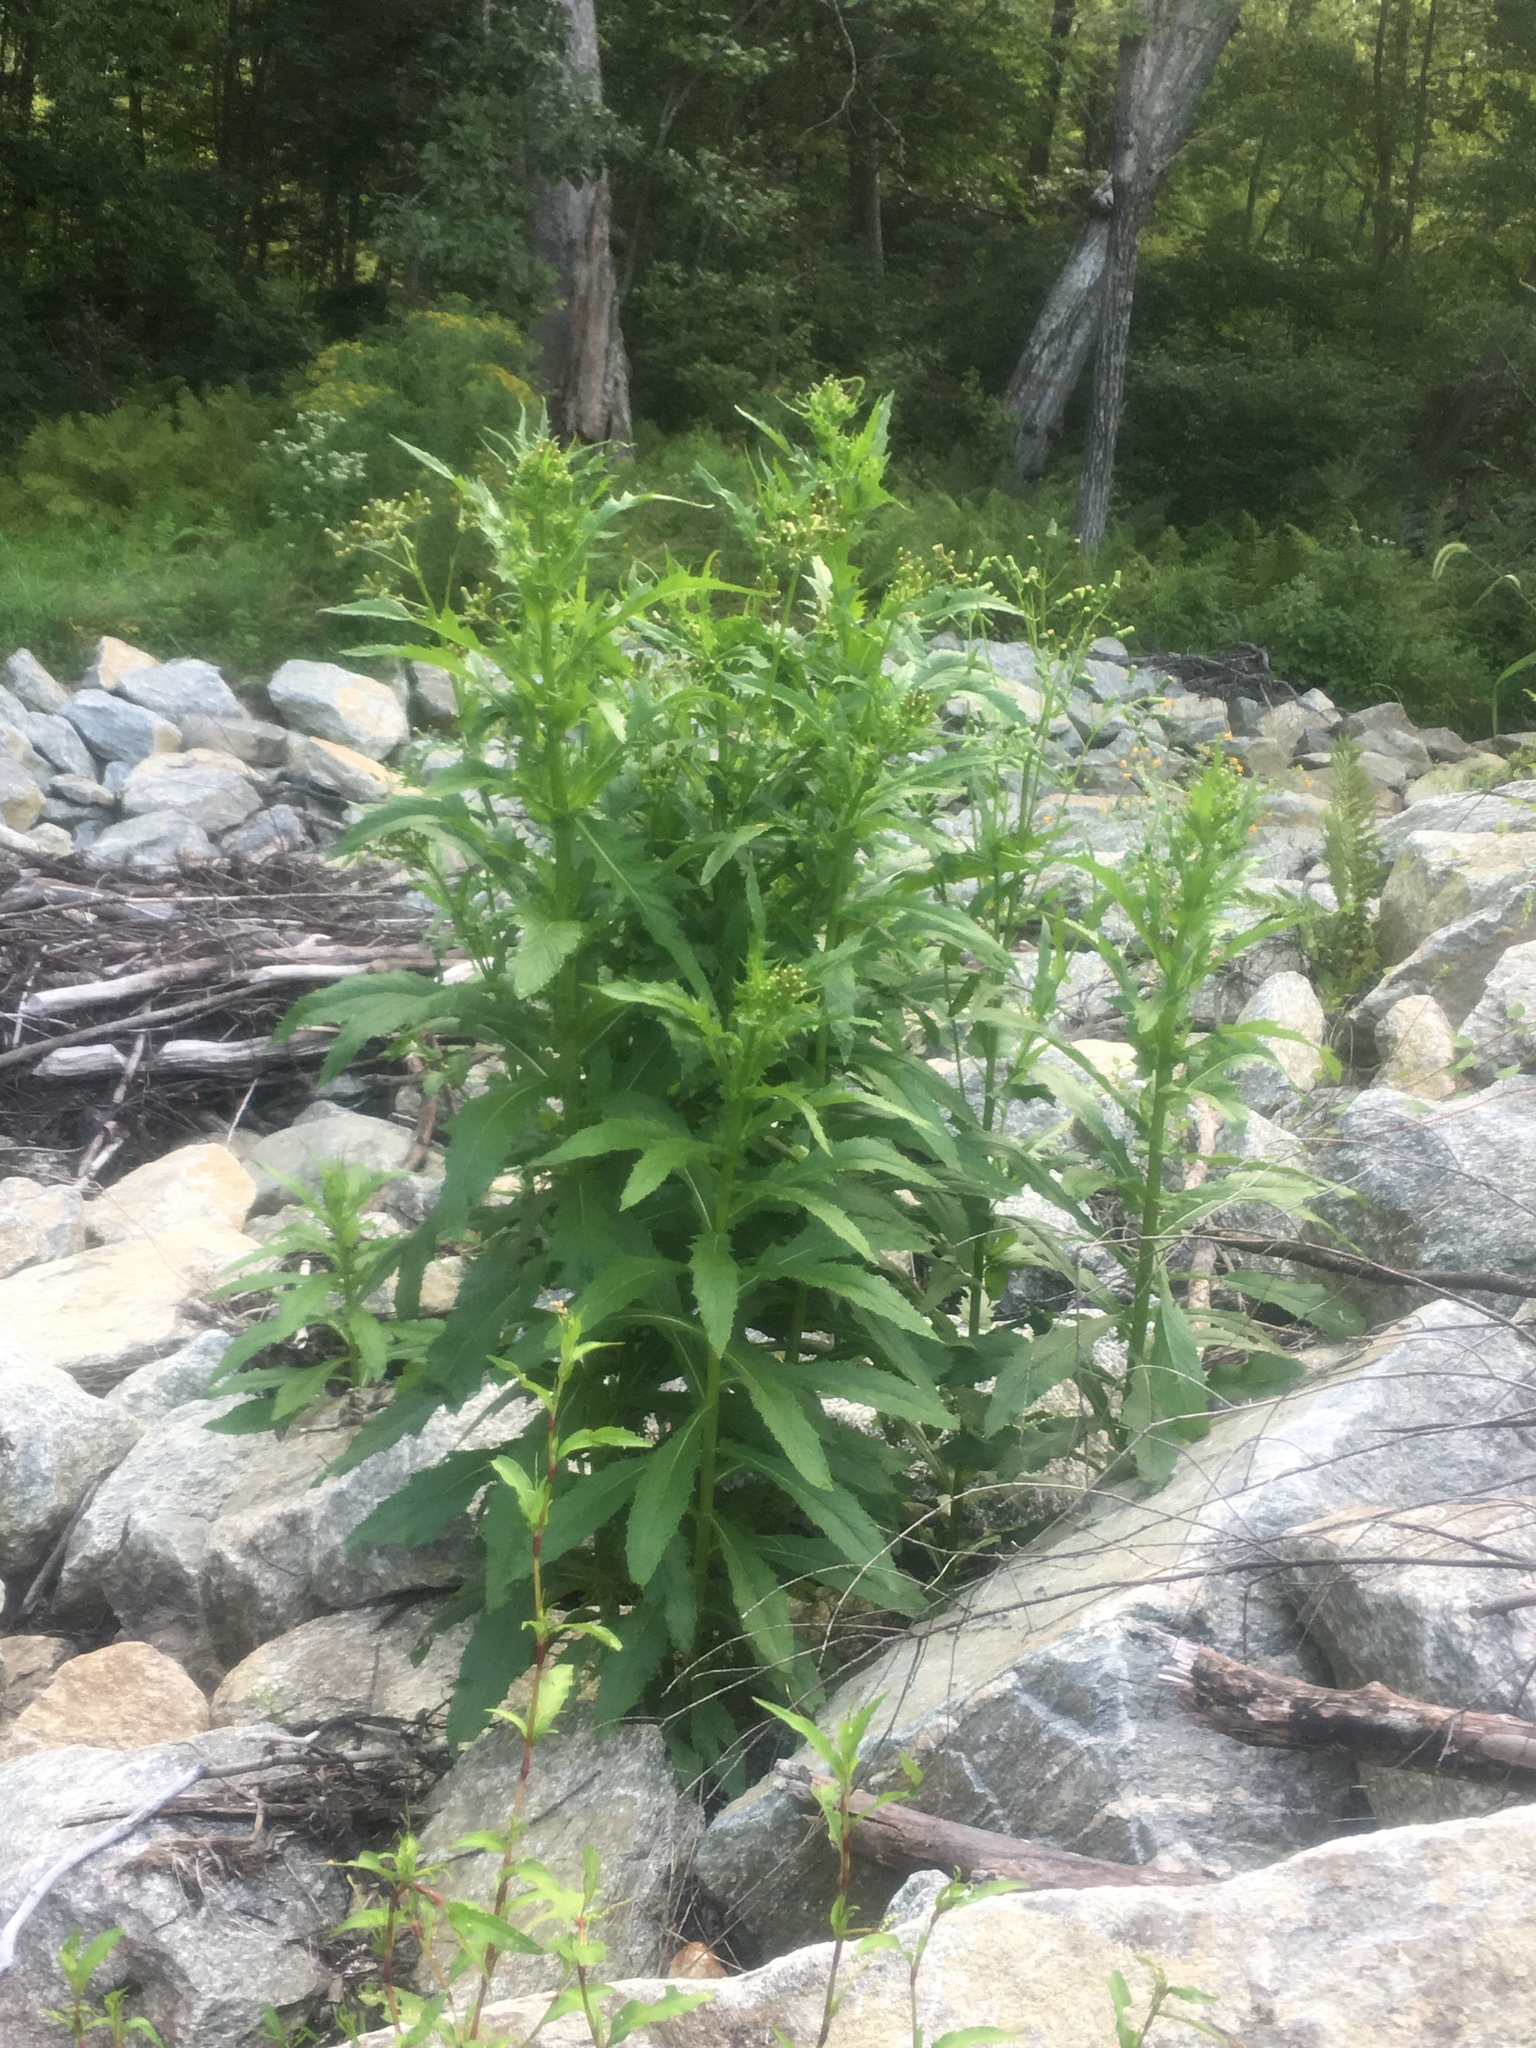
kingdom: Plantae
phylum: Tracheophyta
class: Magnoliopsida
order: Asterales
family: Asteraceae
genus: Erechtites
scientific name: Erechtites hieraciifolius
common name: American burnweed
